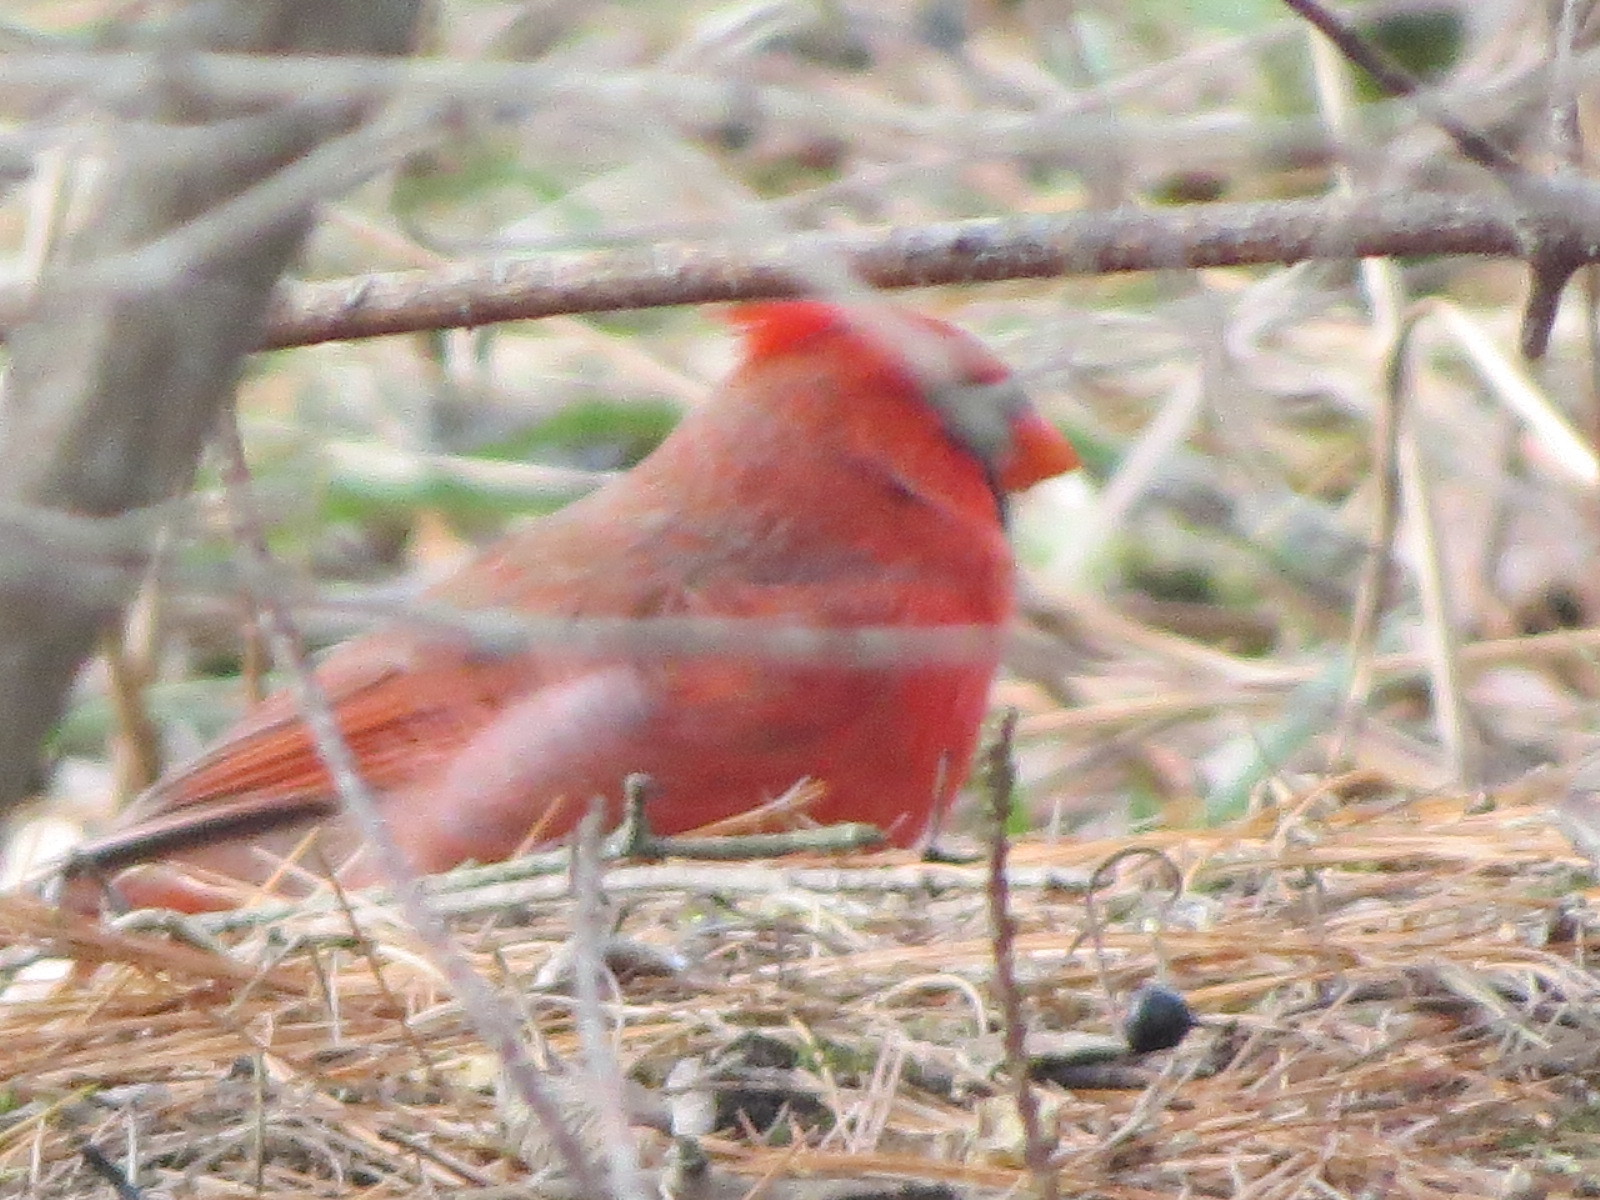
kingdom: Animalia
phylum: Chordata
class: Aves
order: Passeriformes
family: Cardinalidae
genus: Cardinalis
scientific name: Cardinalis cardinalis
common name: Northern cardinal
